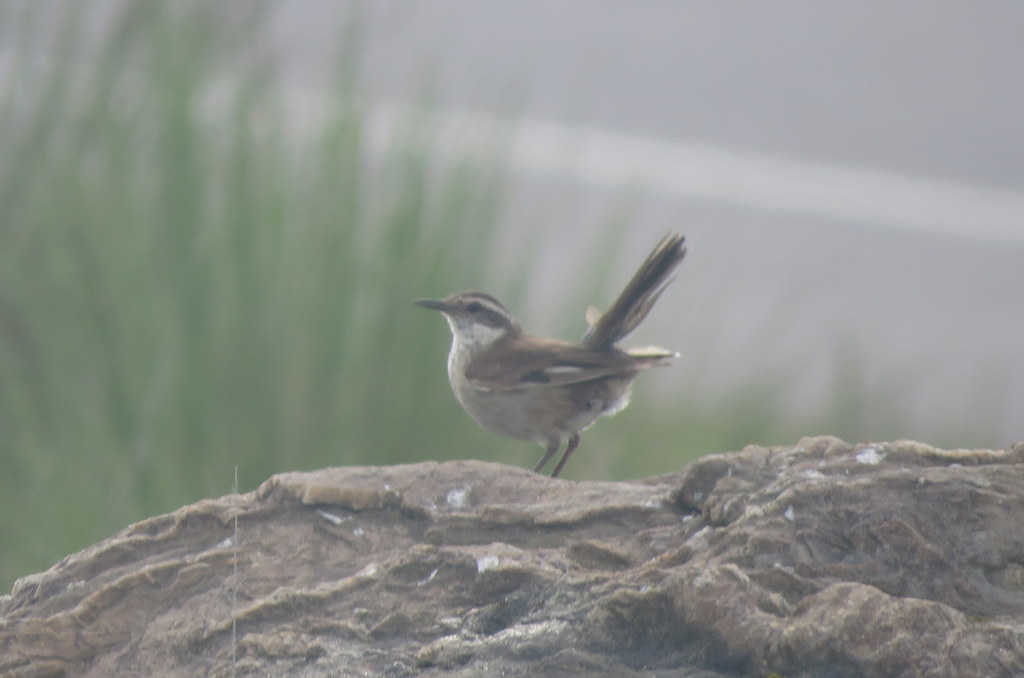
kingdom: Animalia
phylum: Chordata
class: Aves
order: Passeriformes
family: Furnariidae
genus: Cinclodes
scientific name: Cinclodes fuscus
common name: Buff-winged cinclodes
